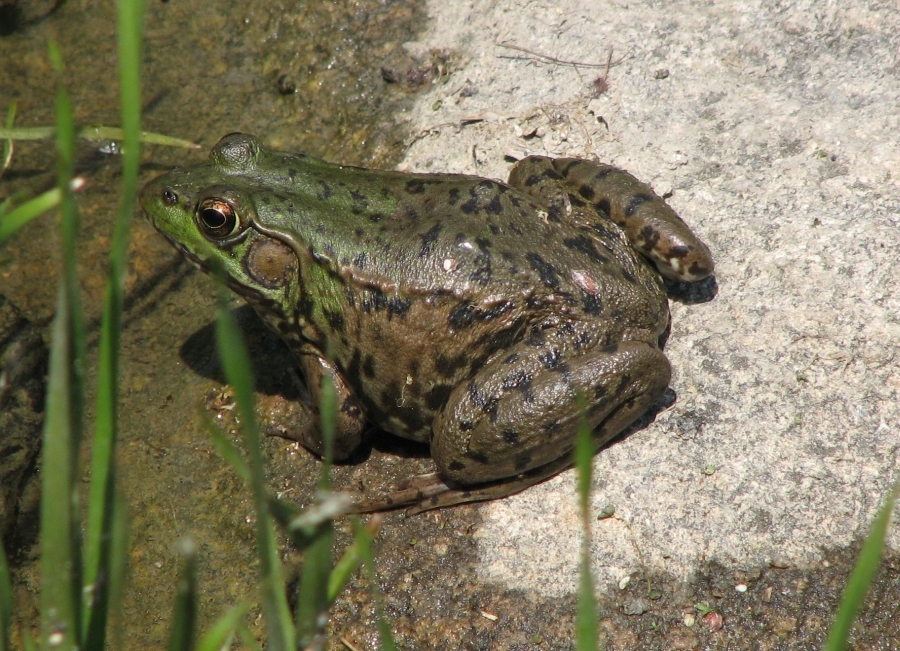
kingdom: Animalia
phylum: Chordata
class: Amphibia
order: Anura
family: Ranidae
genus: Lithobates
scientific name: Lithobates clamitans
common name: Green frog
